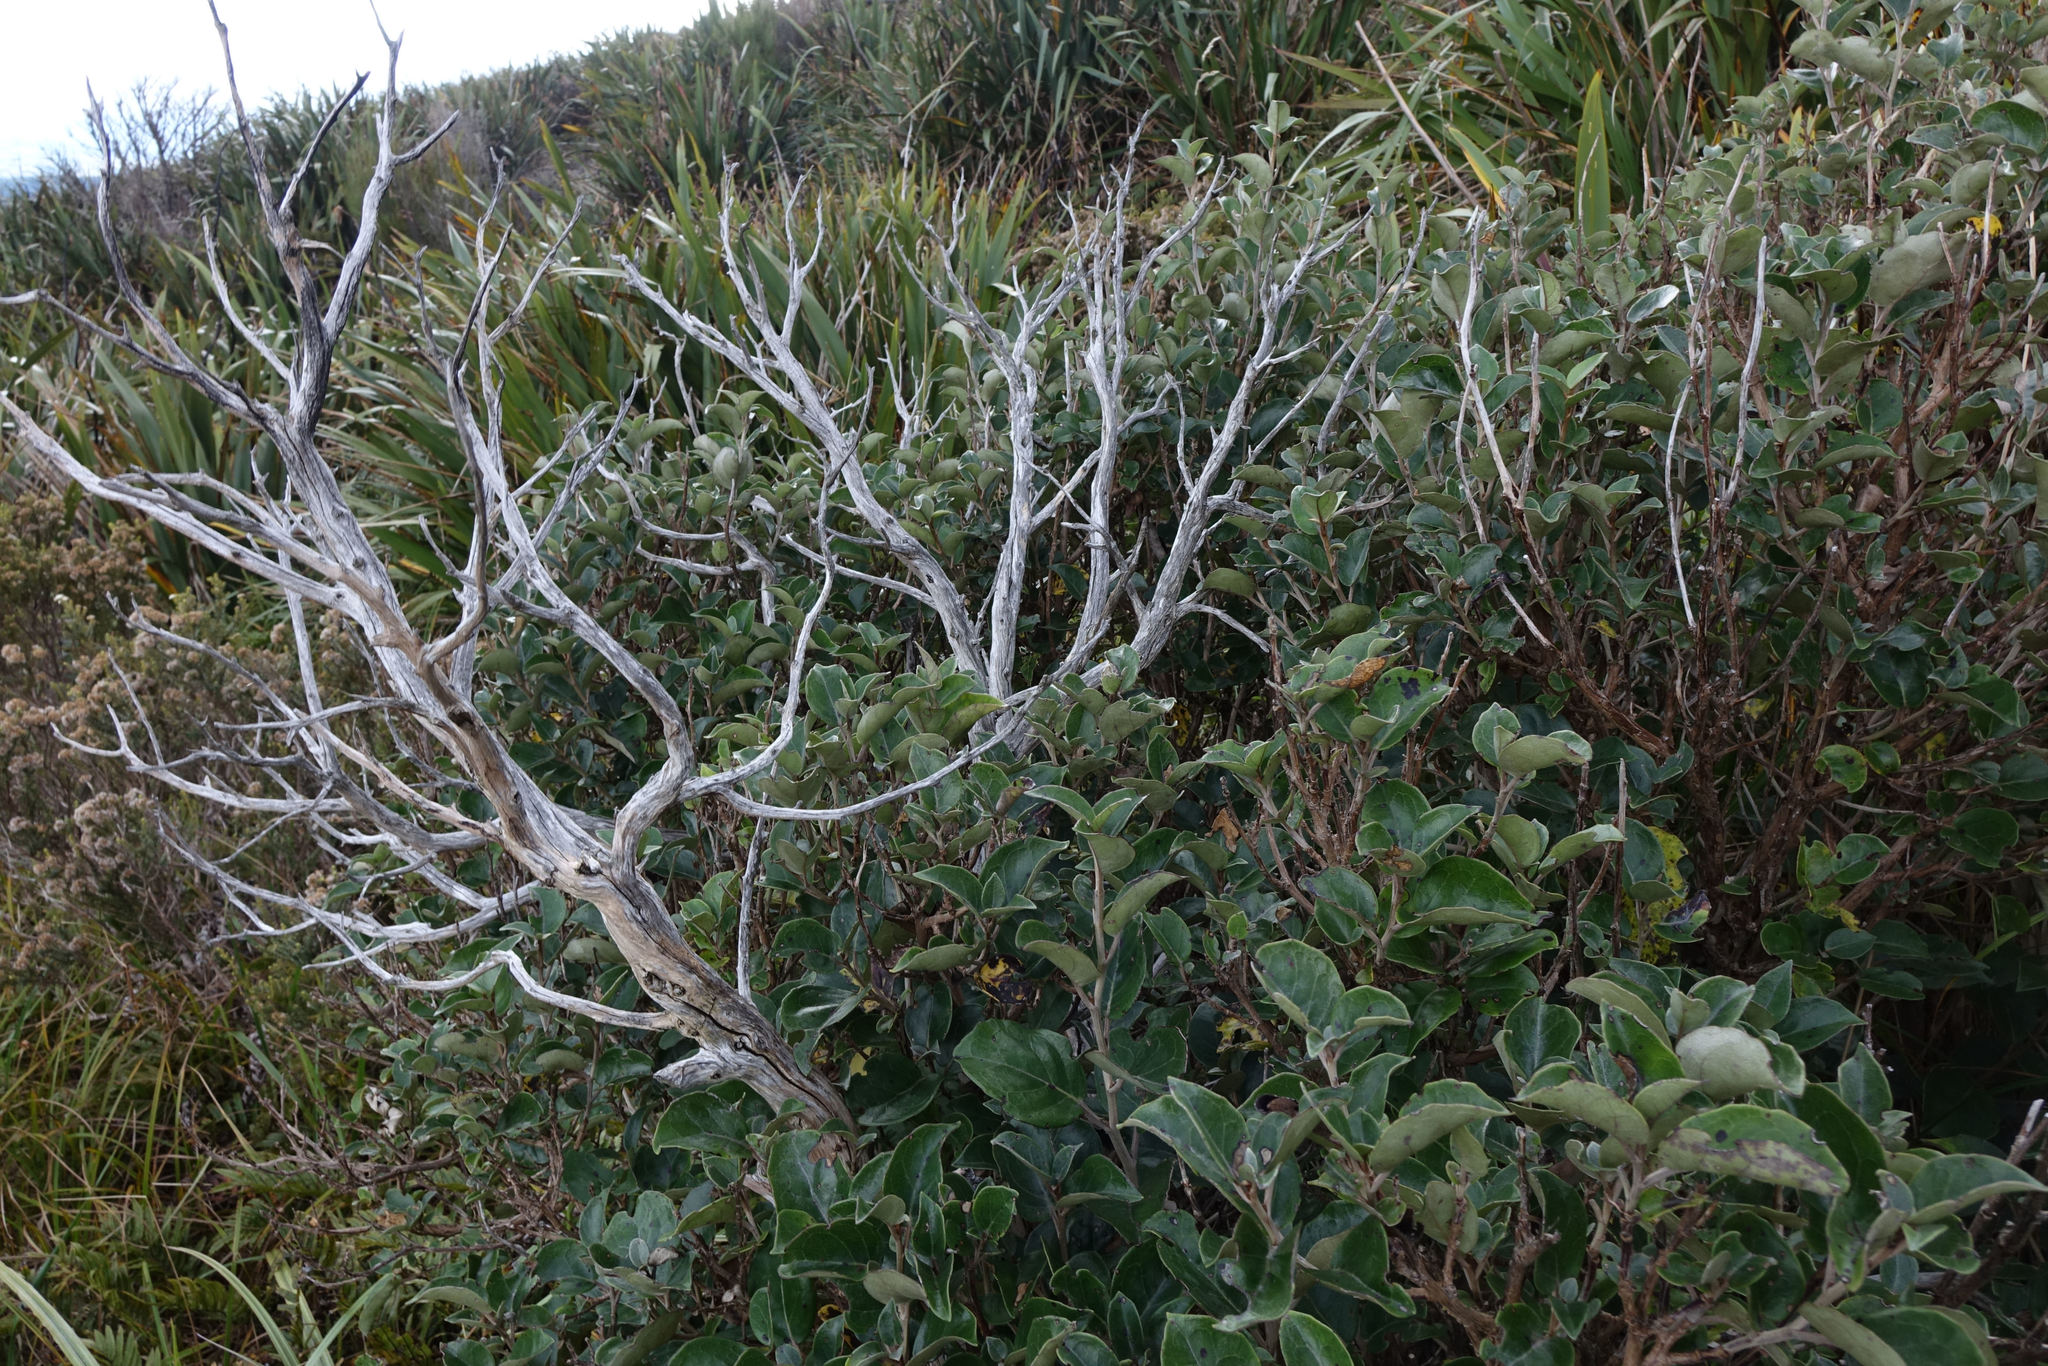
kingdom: Plantae
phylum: Tracheophyta
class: Magnoliopsida
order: Asterales
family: Asteraceae
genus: Olearia
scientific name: Olearia arborescens
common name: Glossy tree daisy
